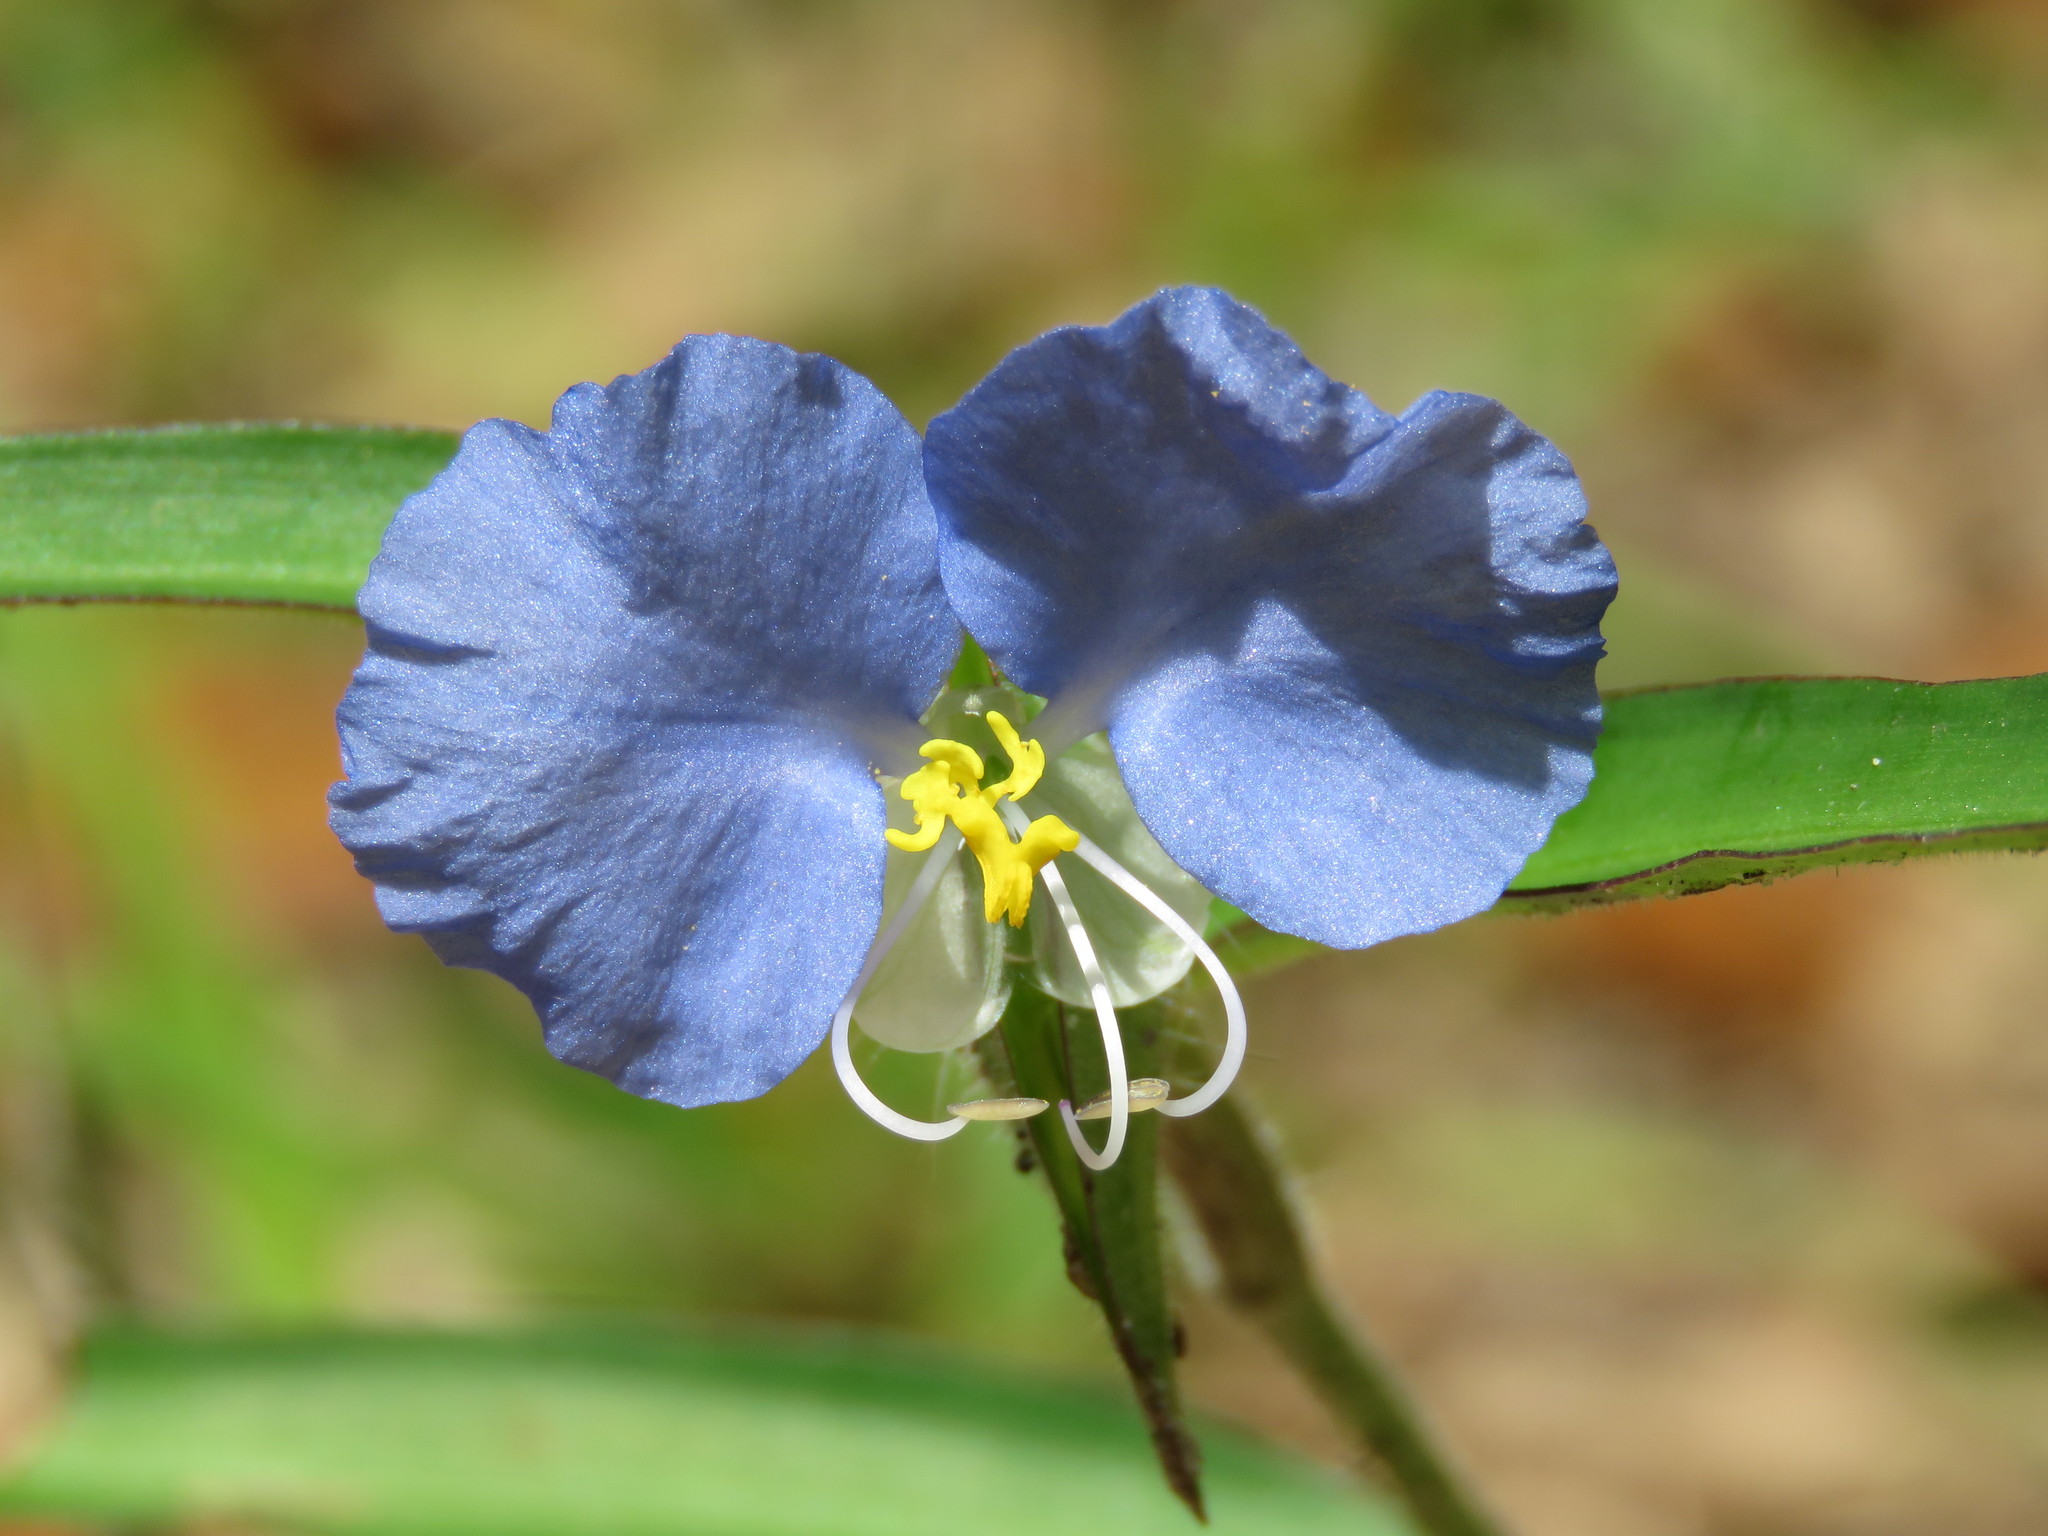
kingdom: Plantae
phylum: Tracheophyta
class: Liliopsida
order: Commelinales
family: Commelinaceae
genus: Commelina
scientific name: Commelina erecta
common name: Blousel blommetjie
